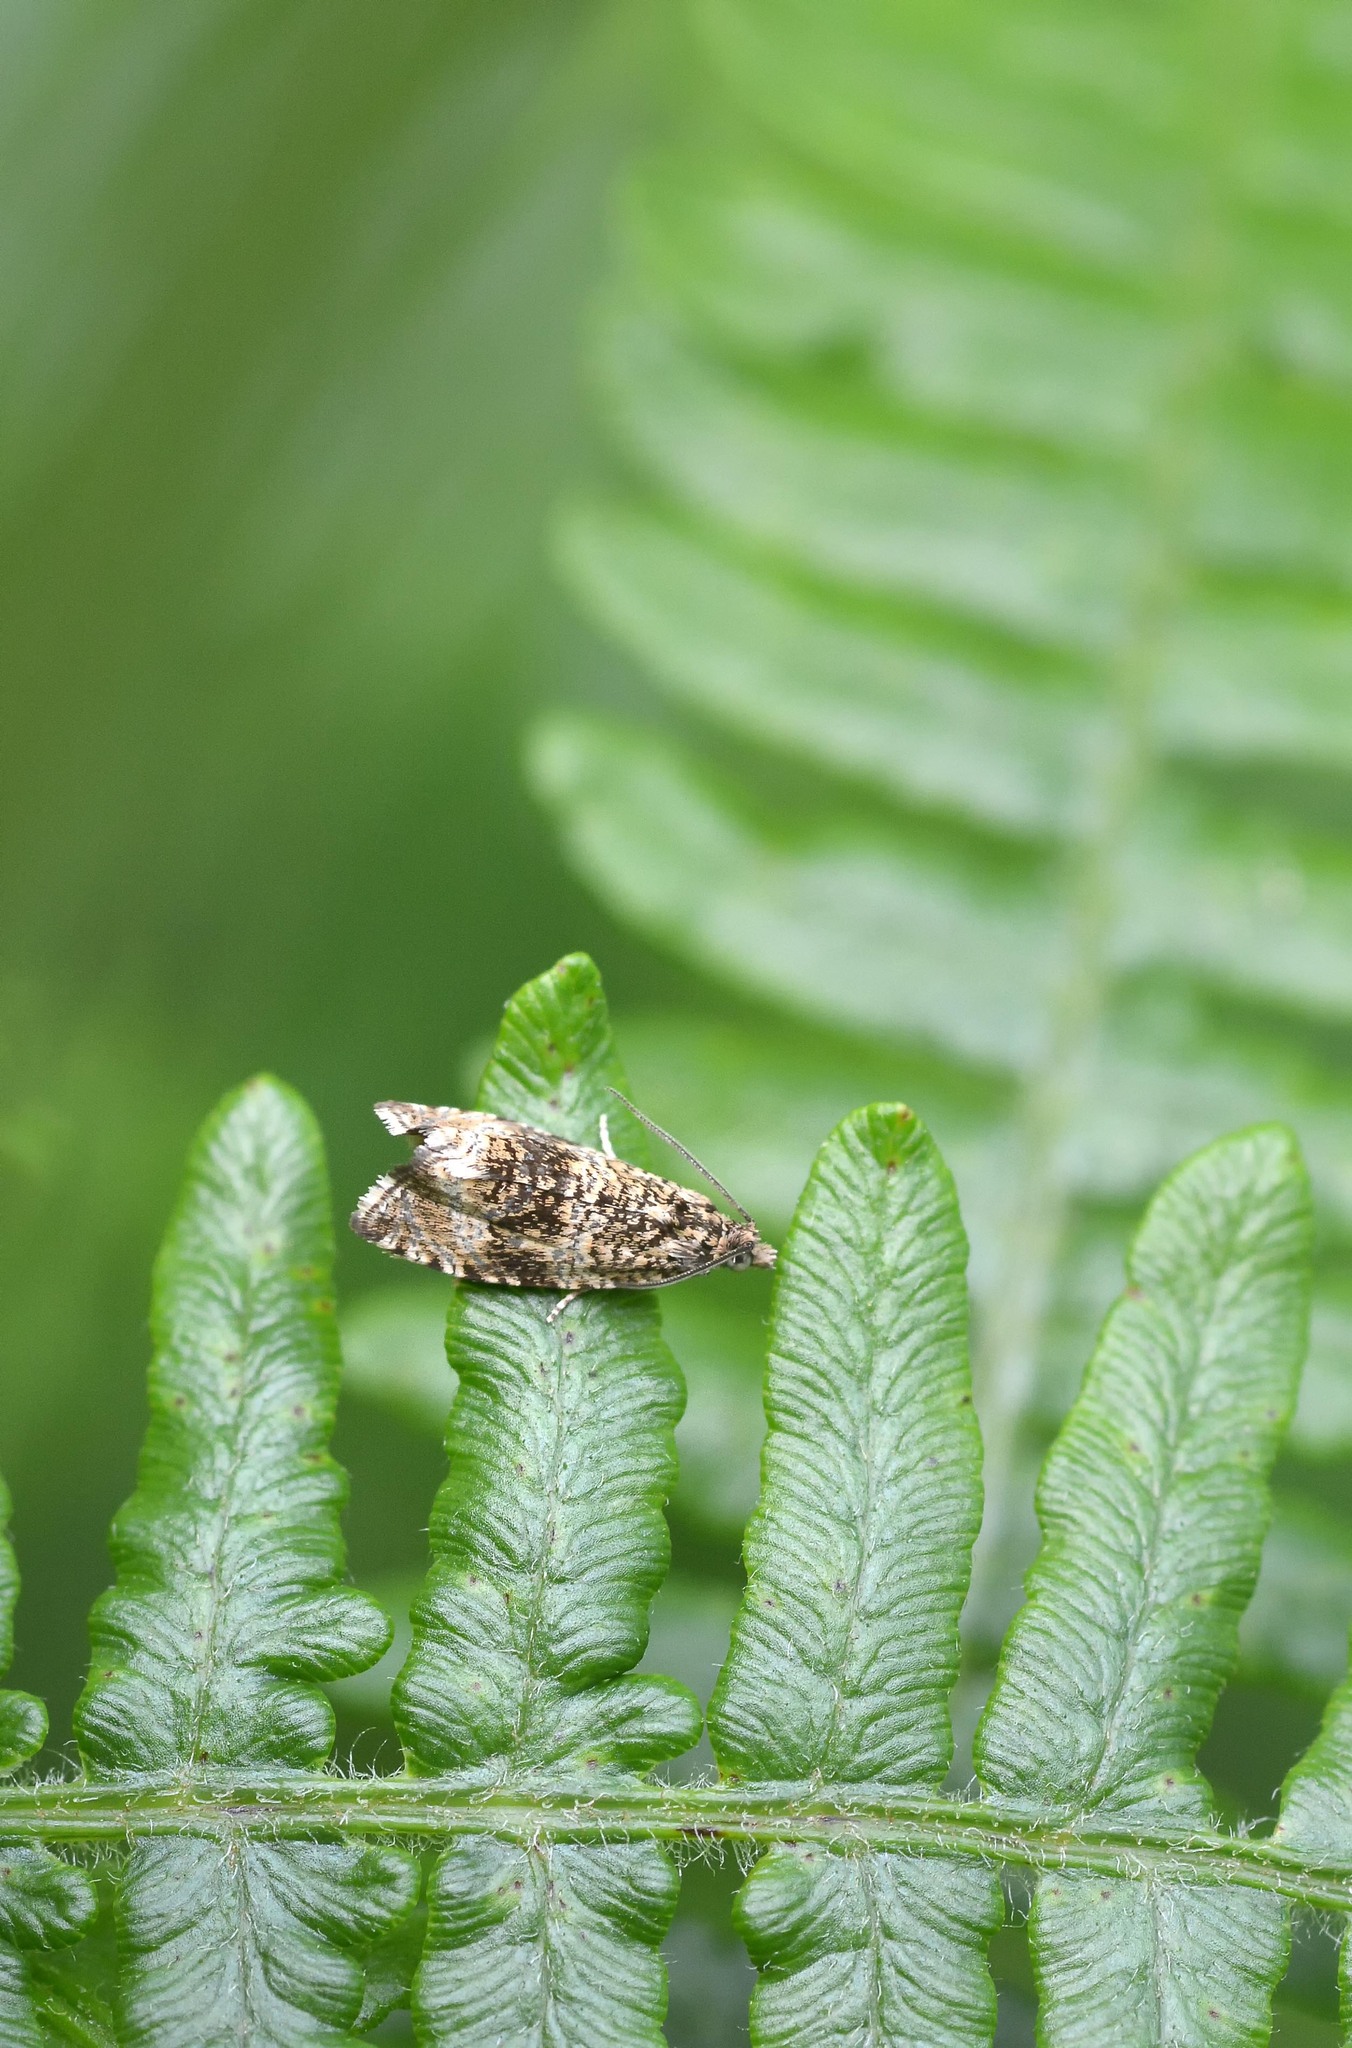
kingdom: Animalia
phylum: Arthropoda
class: Insecta
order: Lepidoptera
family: Tortricidae
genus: Syricoris
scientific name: Syricoris lacunana
